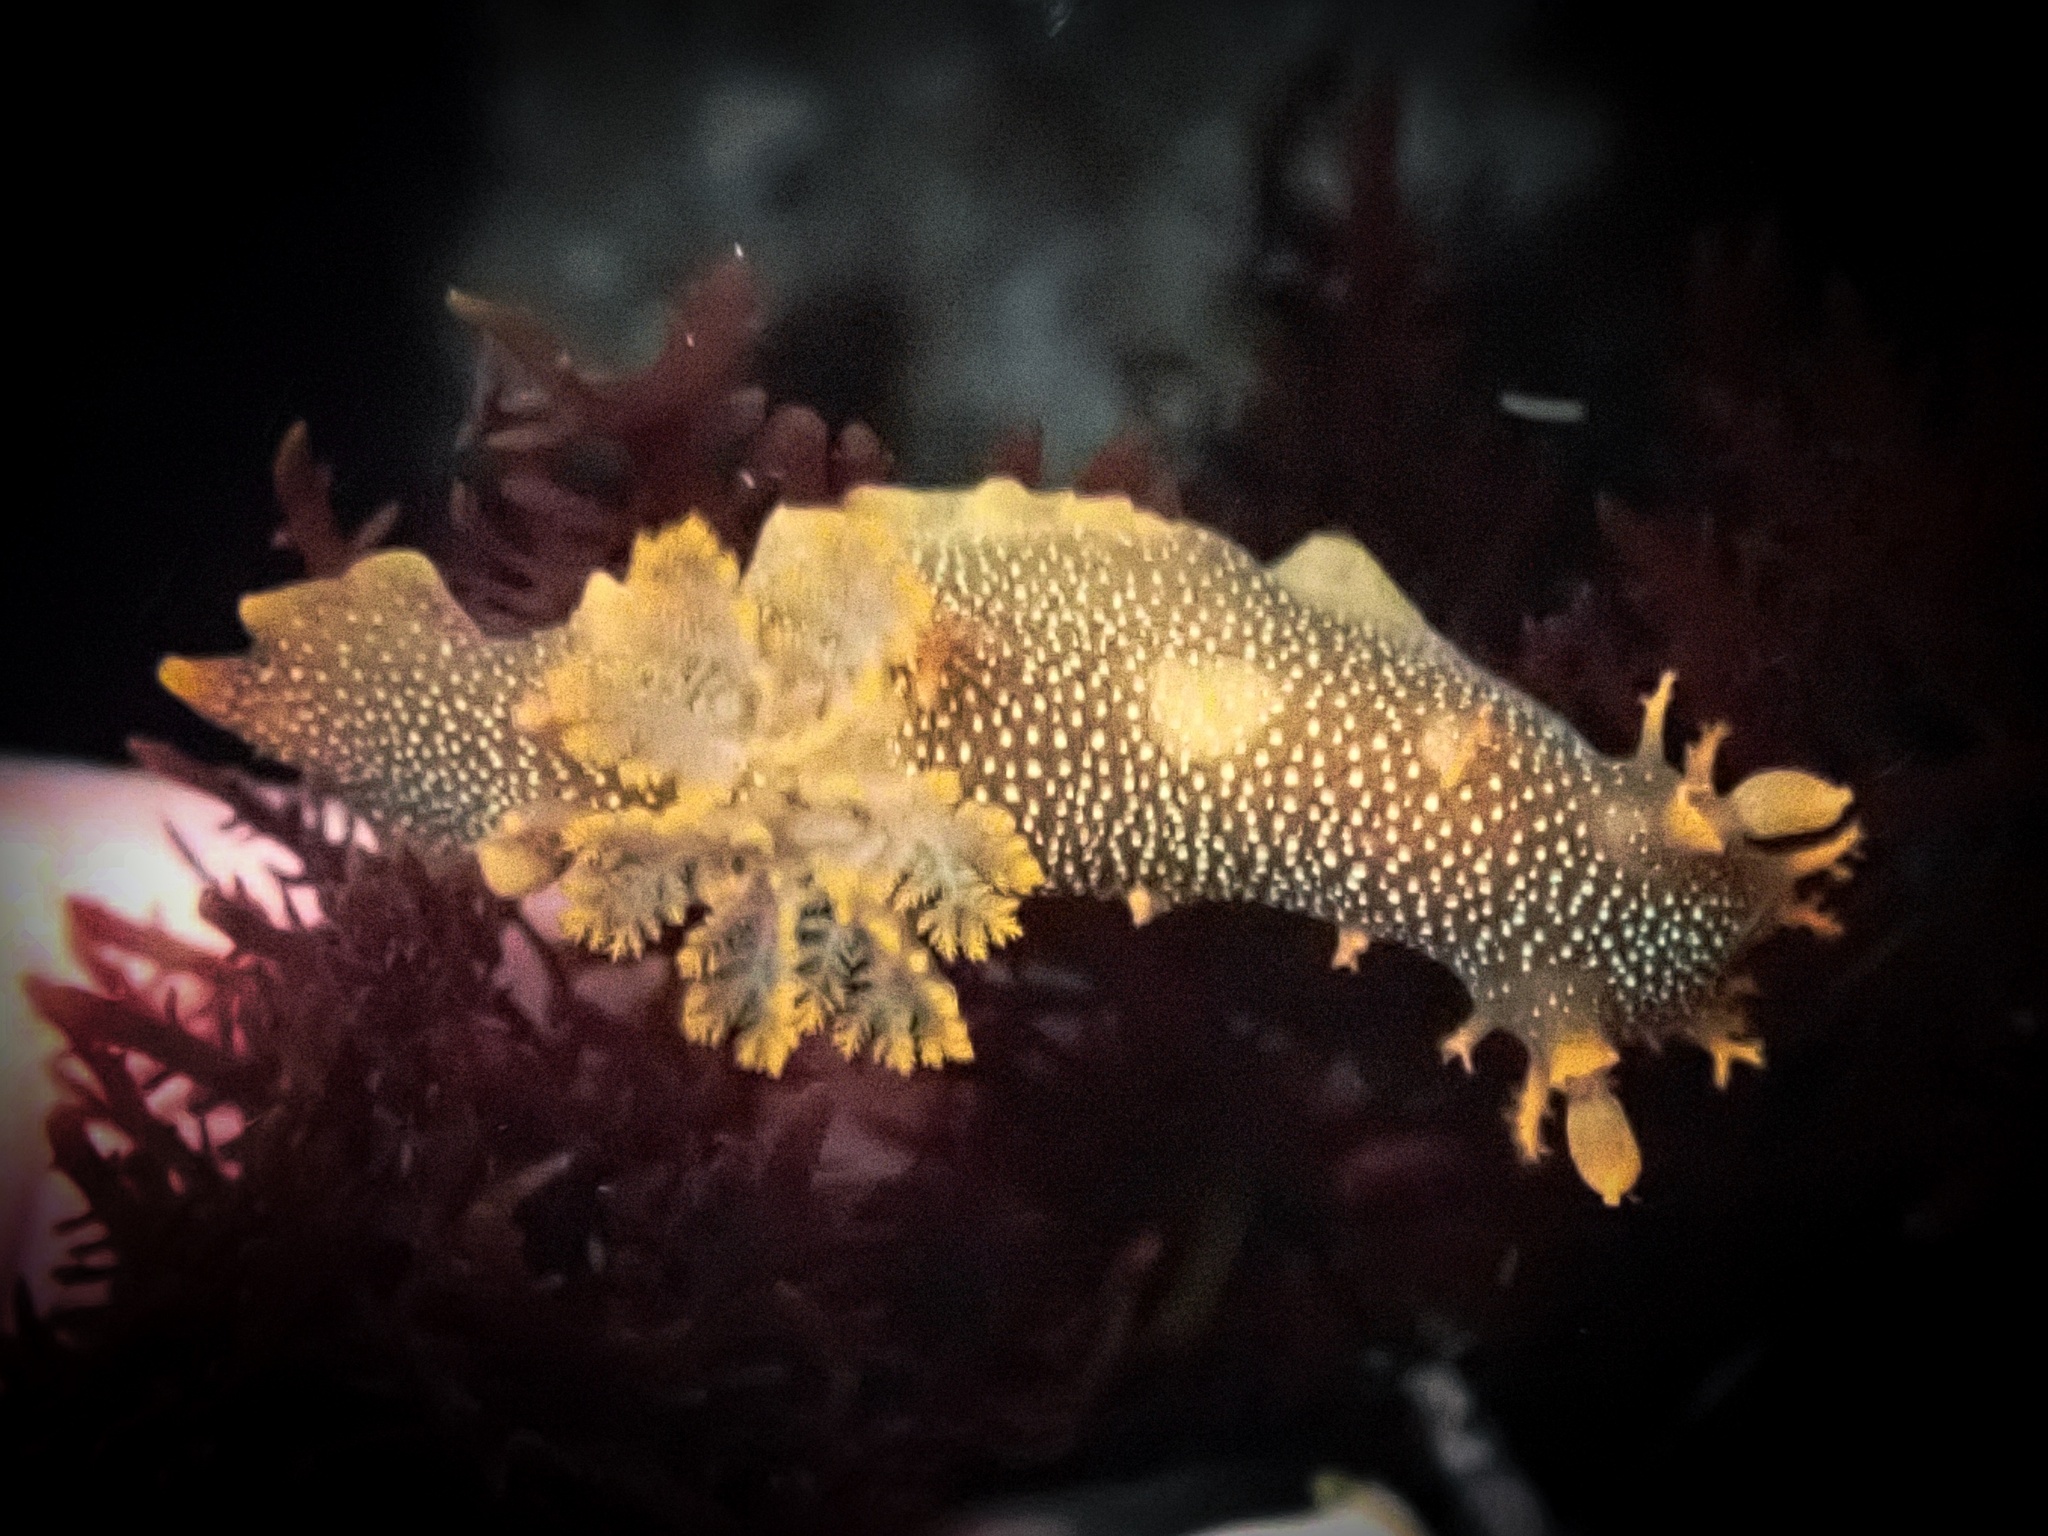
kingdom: Animalia
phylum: Mollusca
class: Gastropoda
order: Nudibranchia
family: Polyceridae
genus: Triopha
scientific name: Triopha maculata
